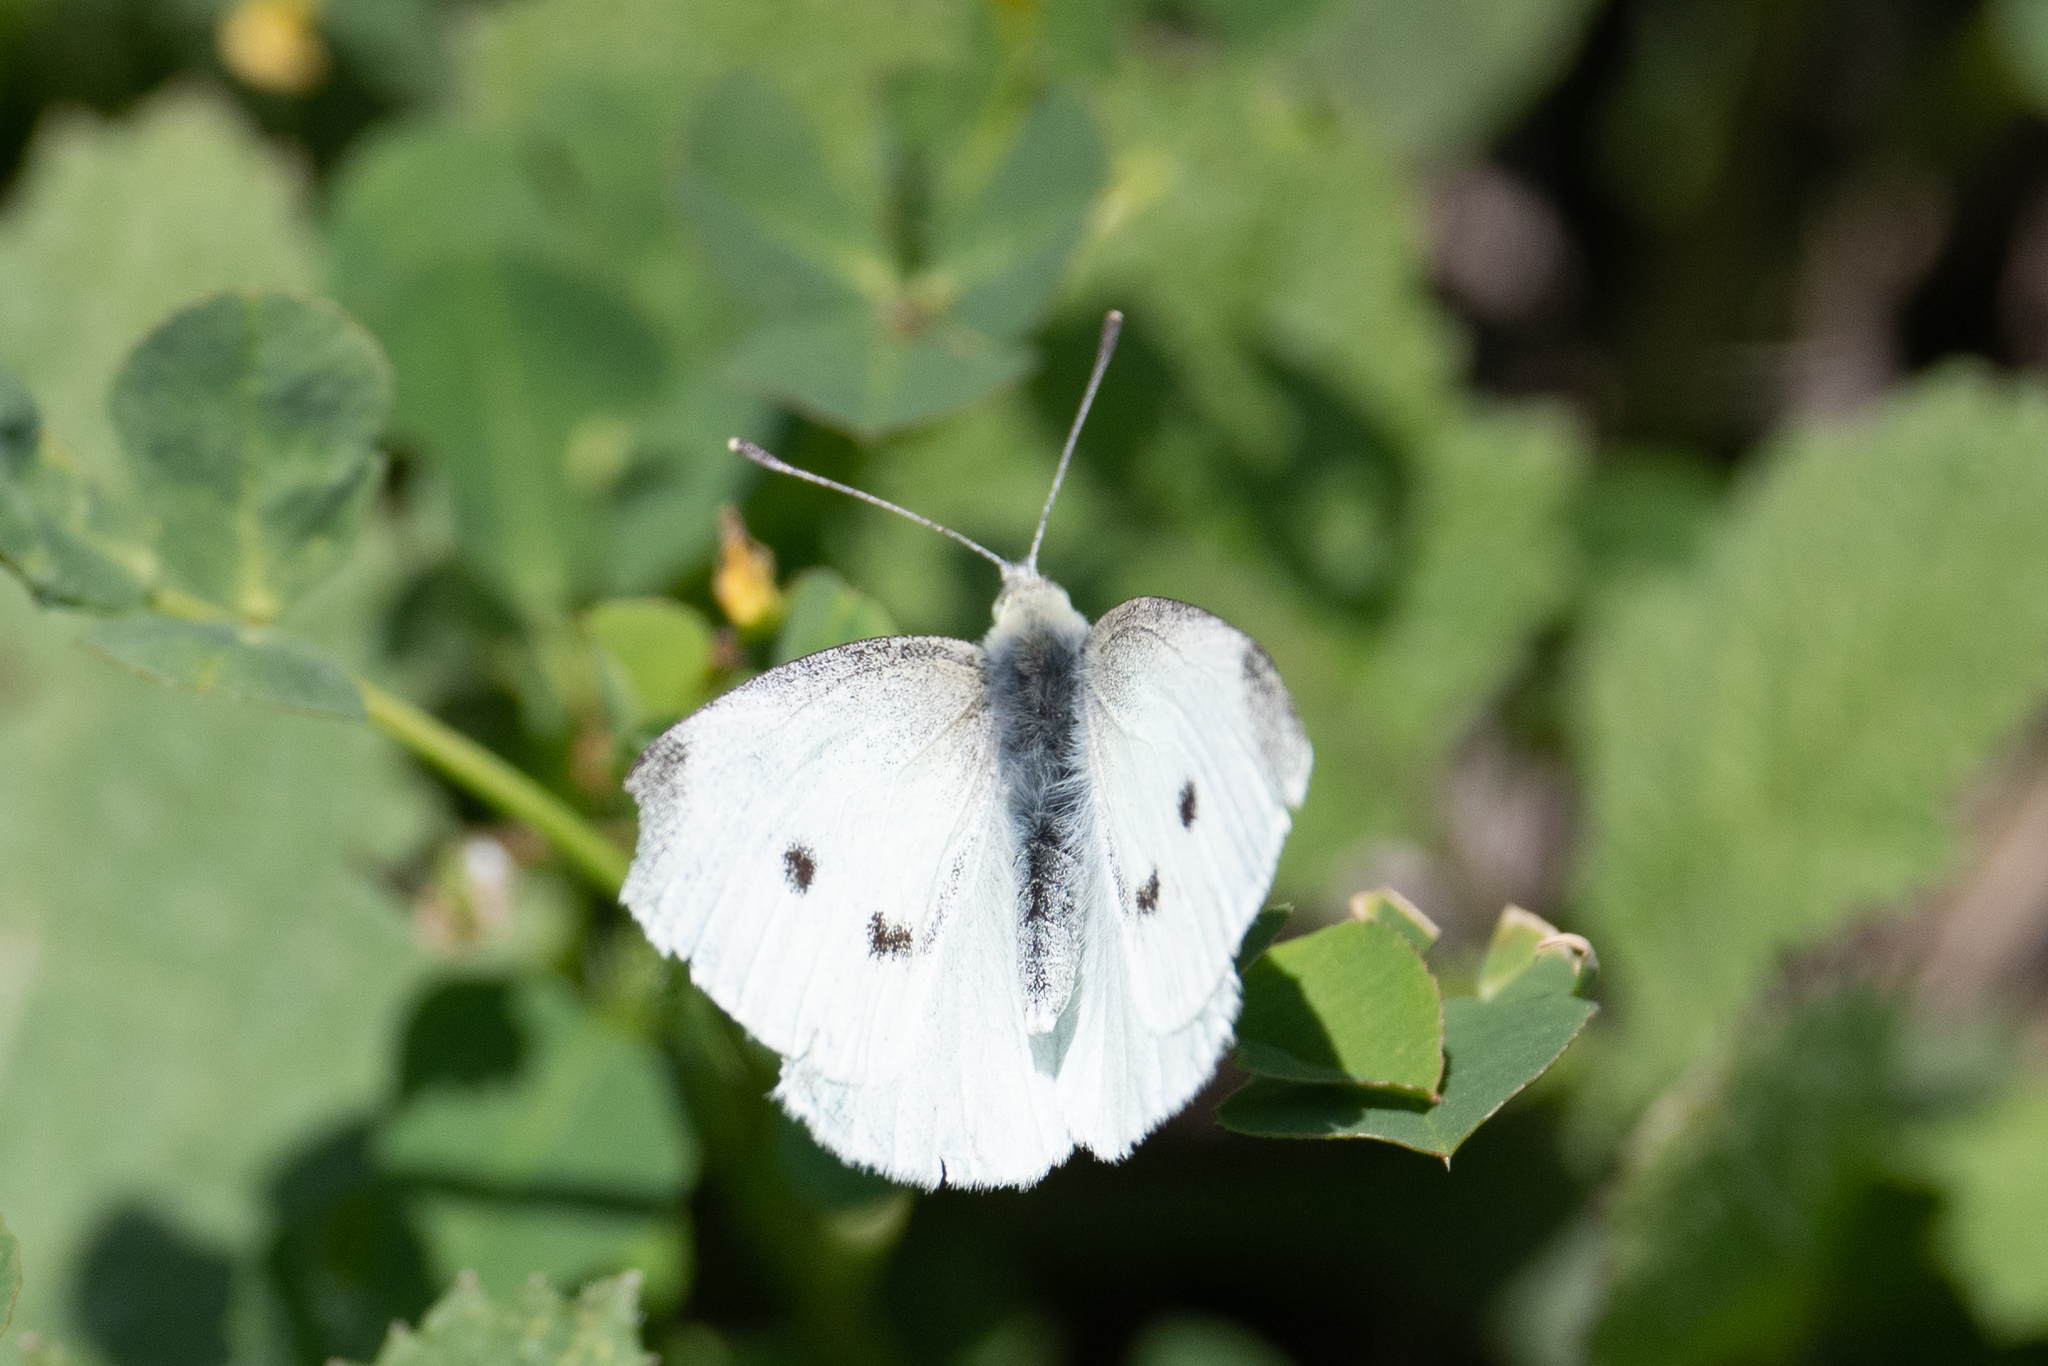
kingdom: Animalia
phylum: Arthropoda
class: Insecta
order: Lepidoptera
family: Pieridae
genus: Pieris
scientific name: Pieris rapae
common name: Small white
